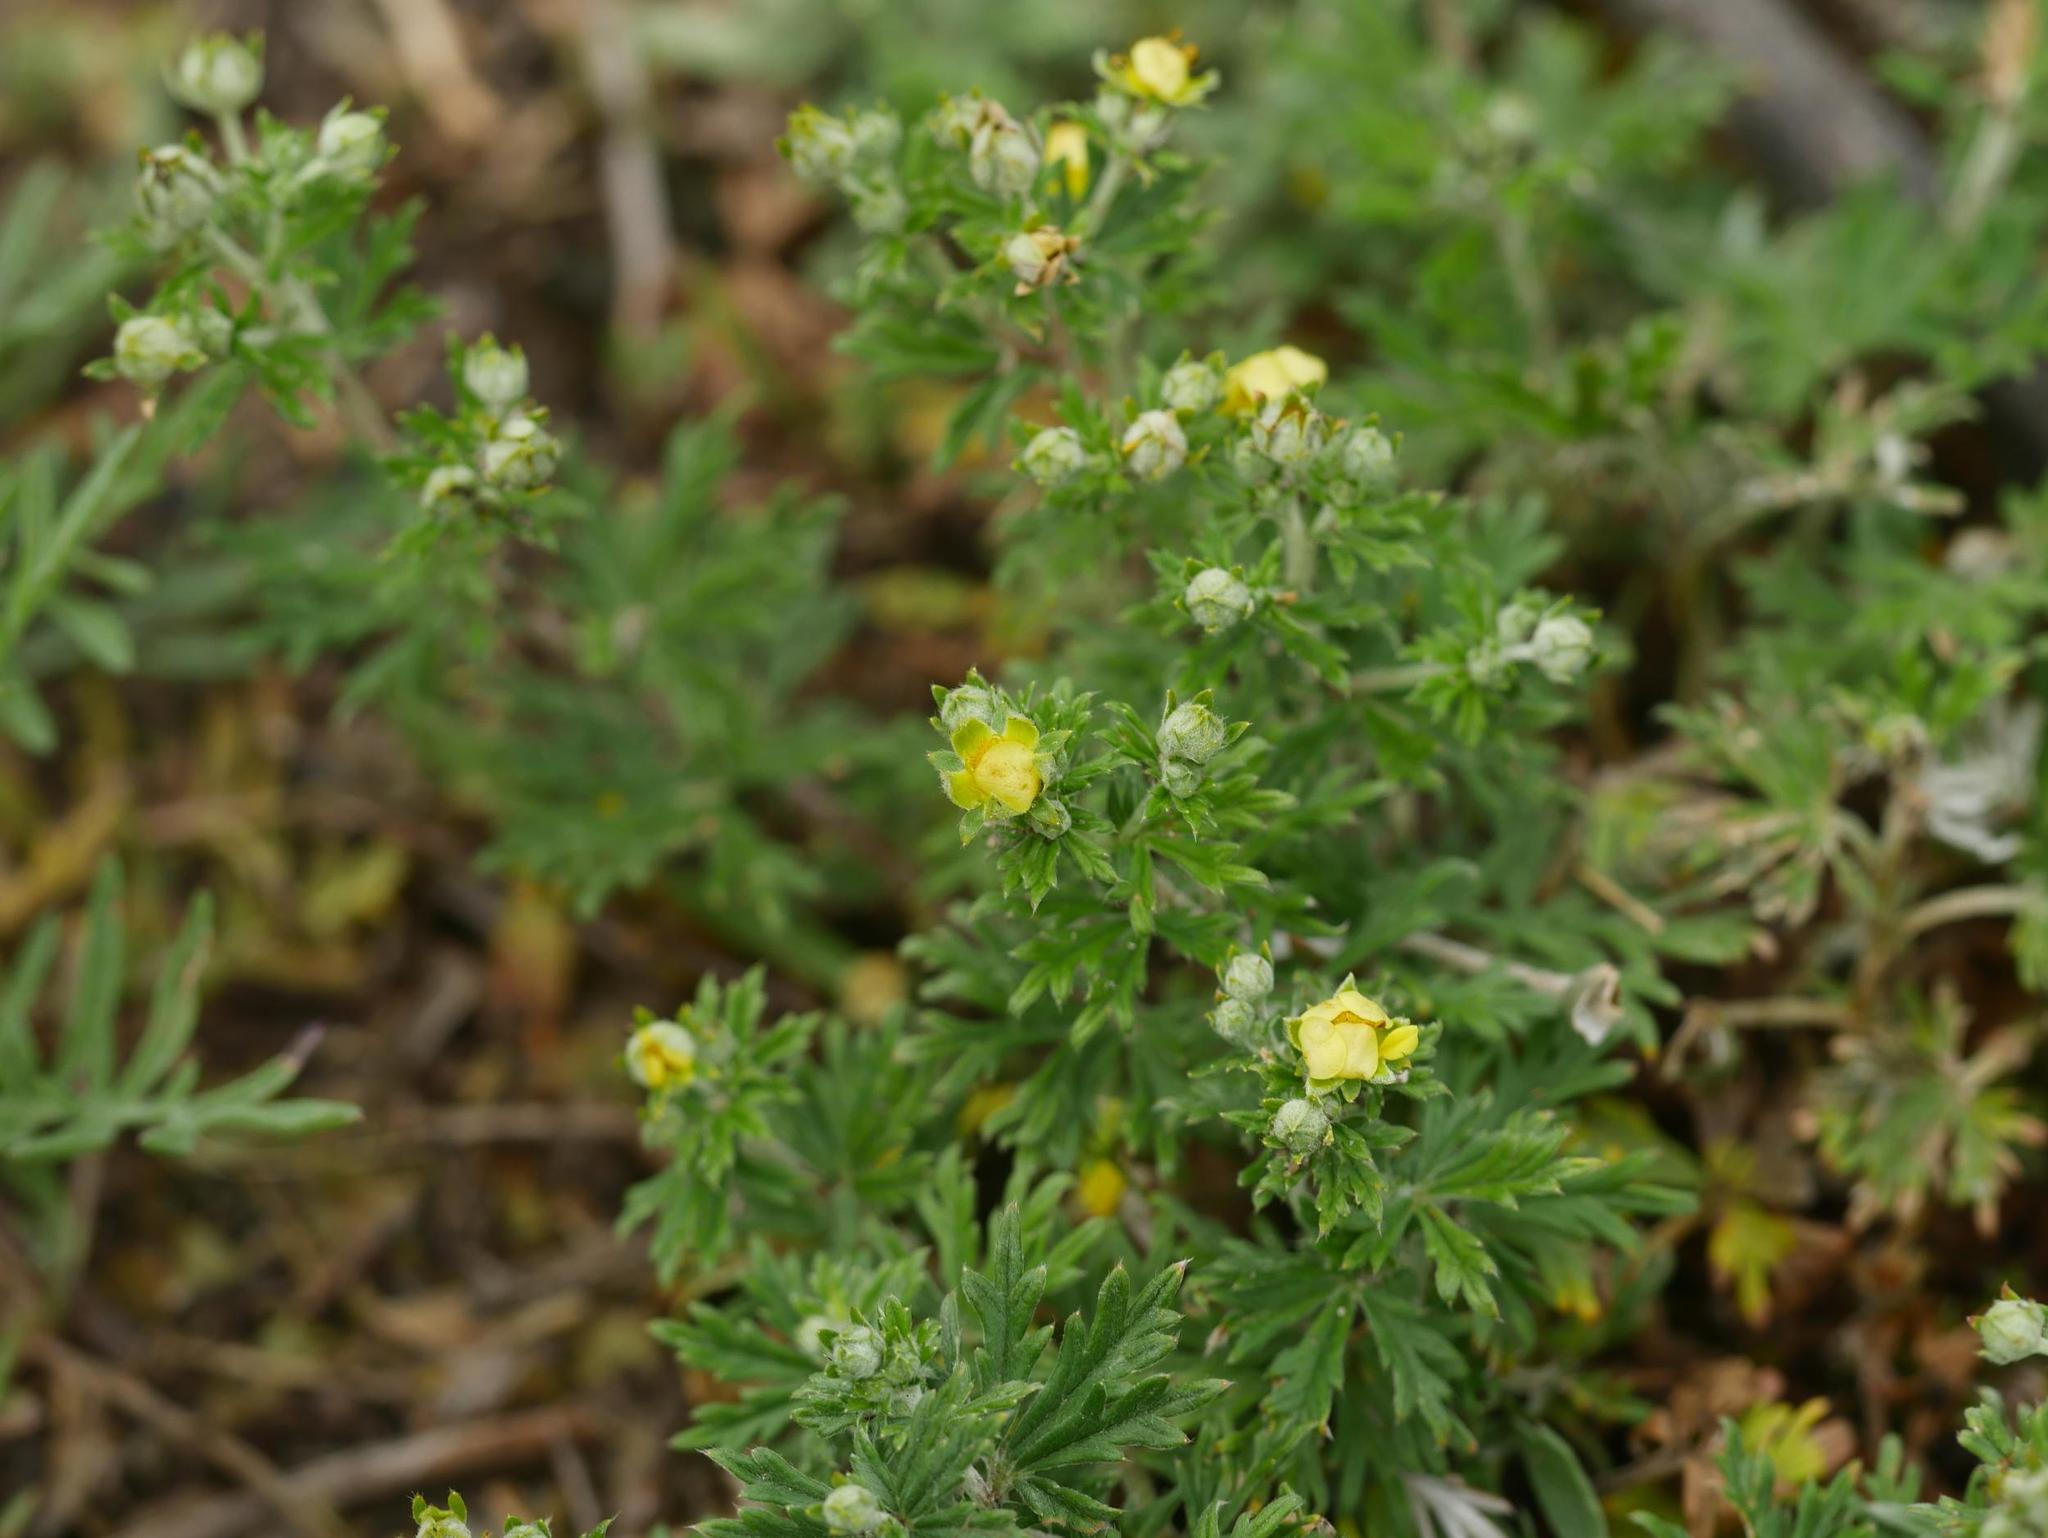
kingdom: Plantae
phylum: Tracheophyta
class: Magnoliopsida
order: Rosales
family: Rosaceae
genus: Potentilla
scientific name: Potentilla argentea
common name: Hoary cinquefoil
